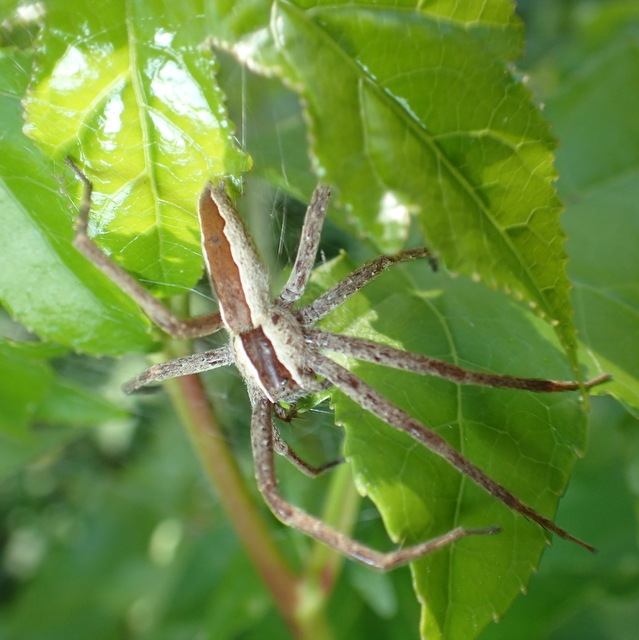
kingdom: Animalia
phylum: Arthropoda
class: Arachnida
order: Araneae
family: Pisauridae
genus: Pisaurina
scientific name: Pisaurina mira
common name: American nursery web spider
